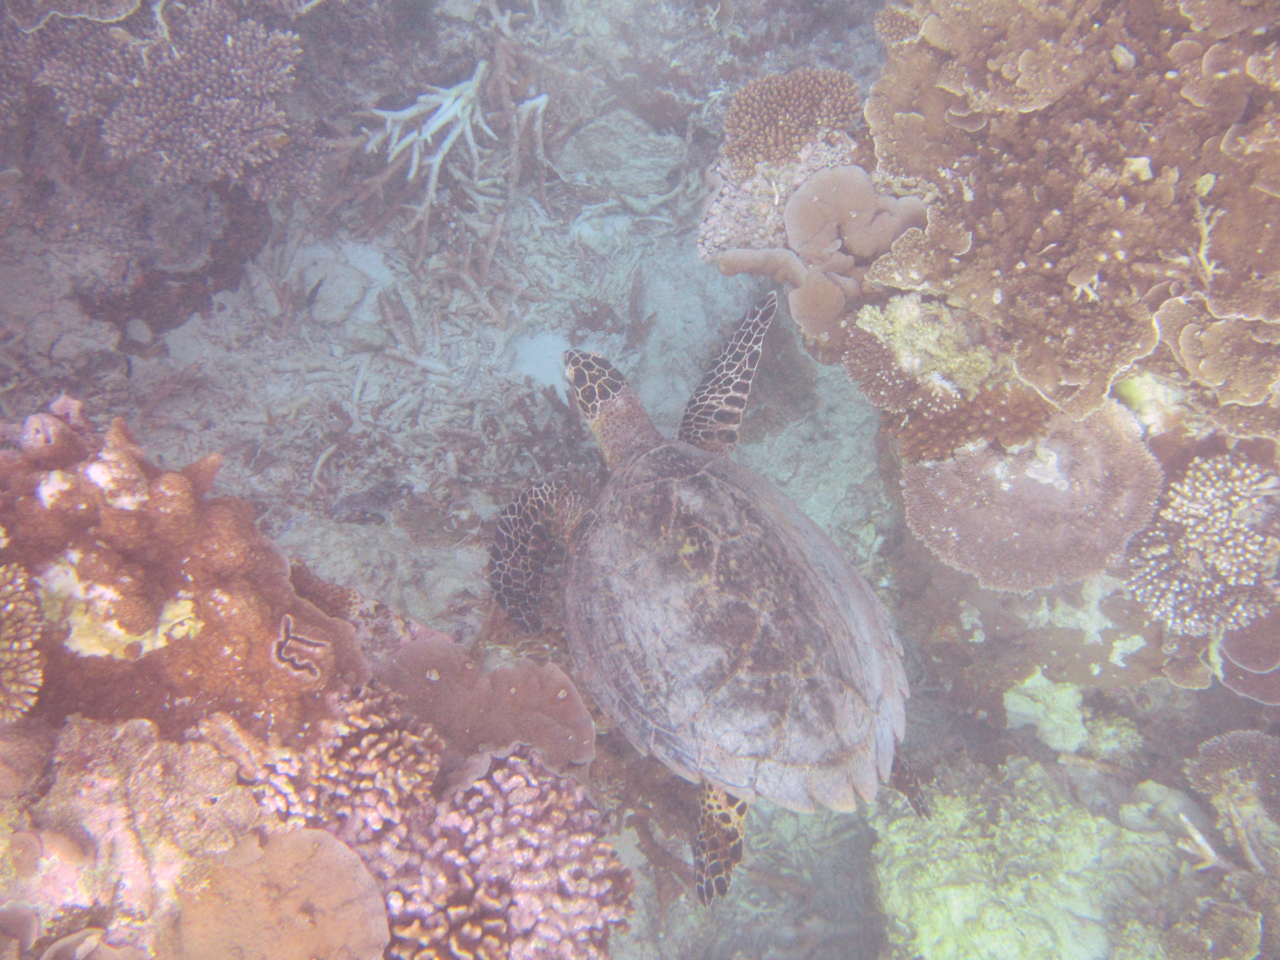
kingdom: Animalia
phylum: Chordata
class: Testudines
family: Cheloniidae
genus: Eretmochelys
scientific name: Eretmochelys imbricata
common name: Hawksbill turtle
